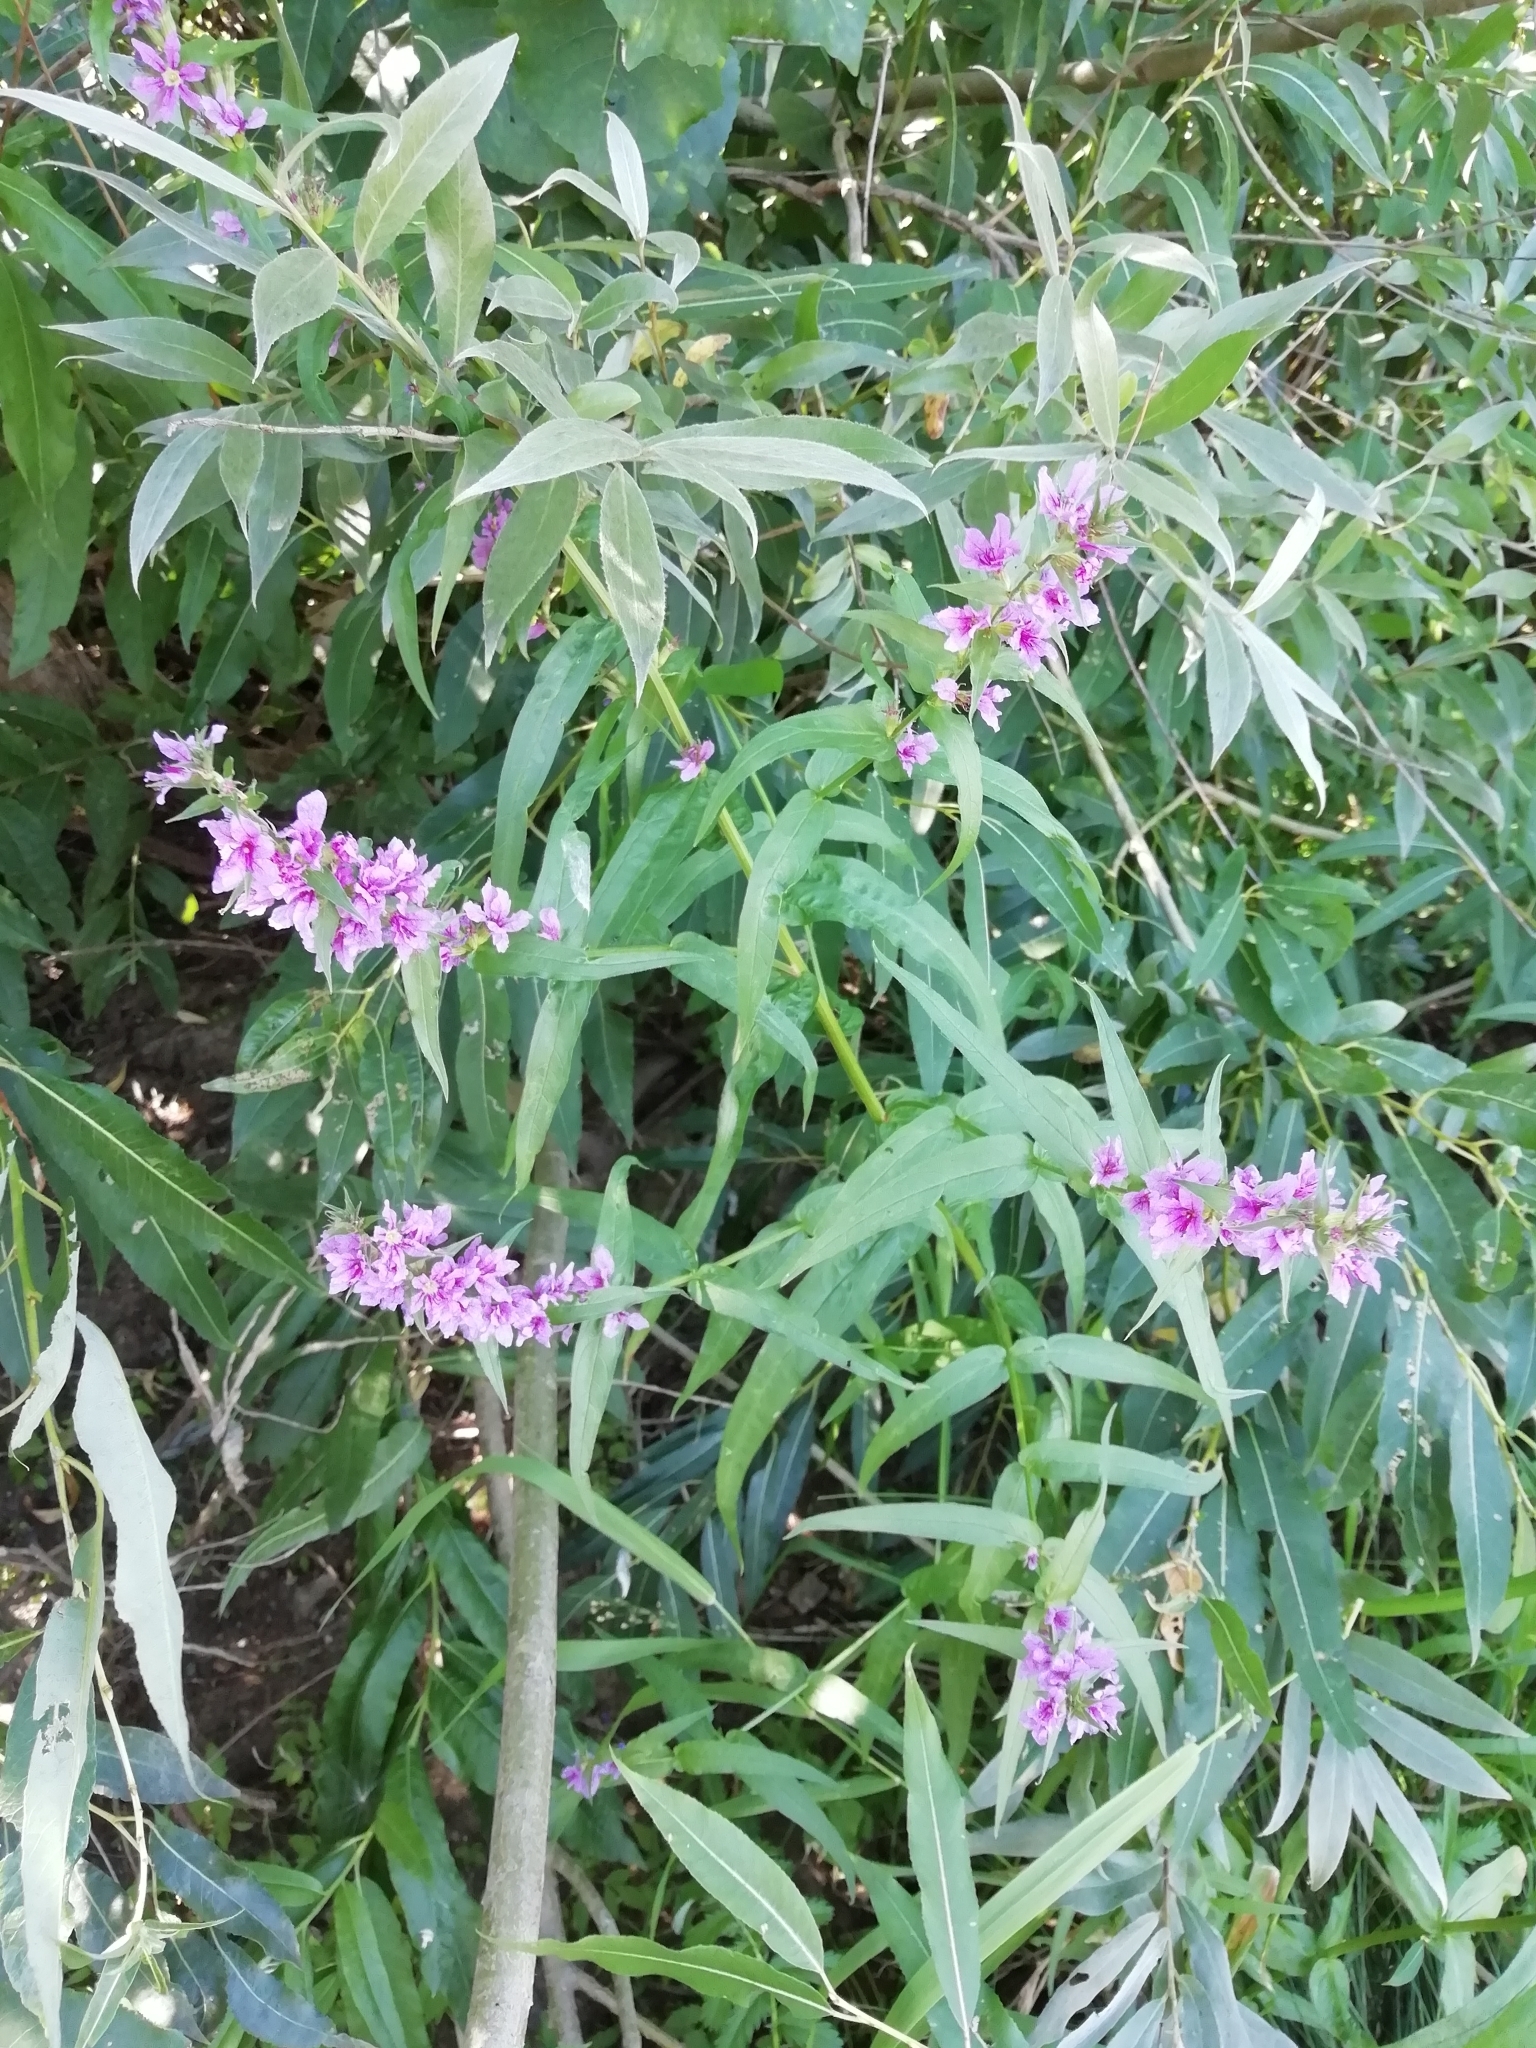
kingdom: Plantae
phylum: Tracheophyta
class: Magnoliopsida
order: Myrtales
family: Lythraceae
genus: Lythrum
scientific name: Lythrum salicaria
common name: Purple loosestrife
